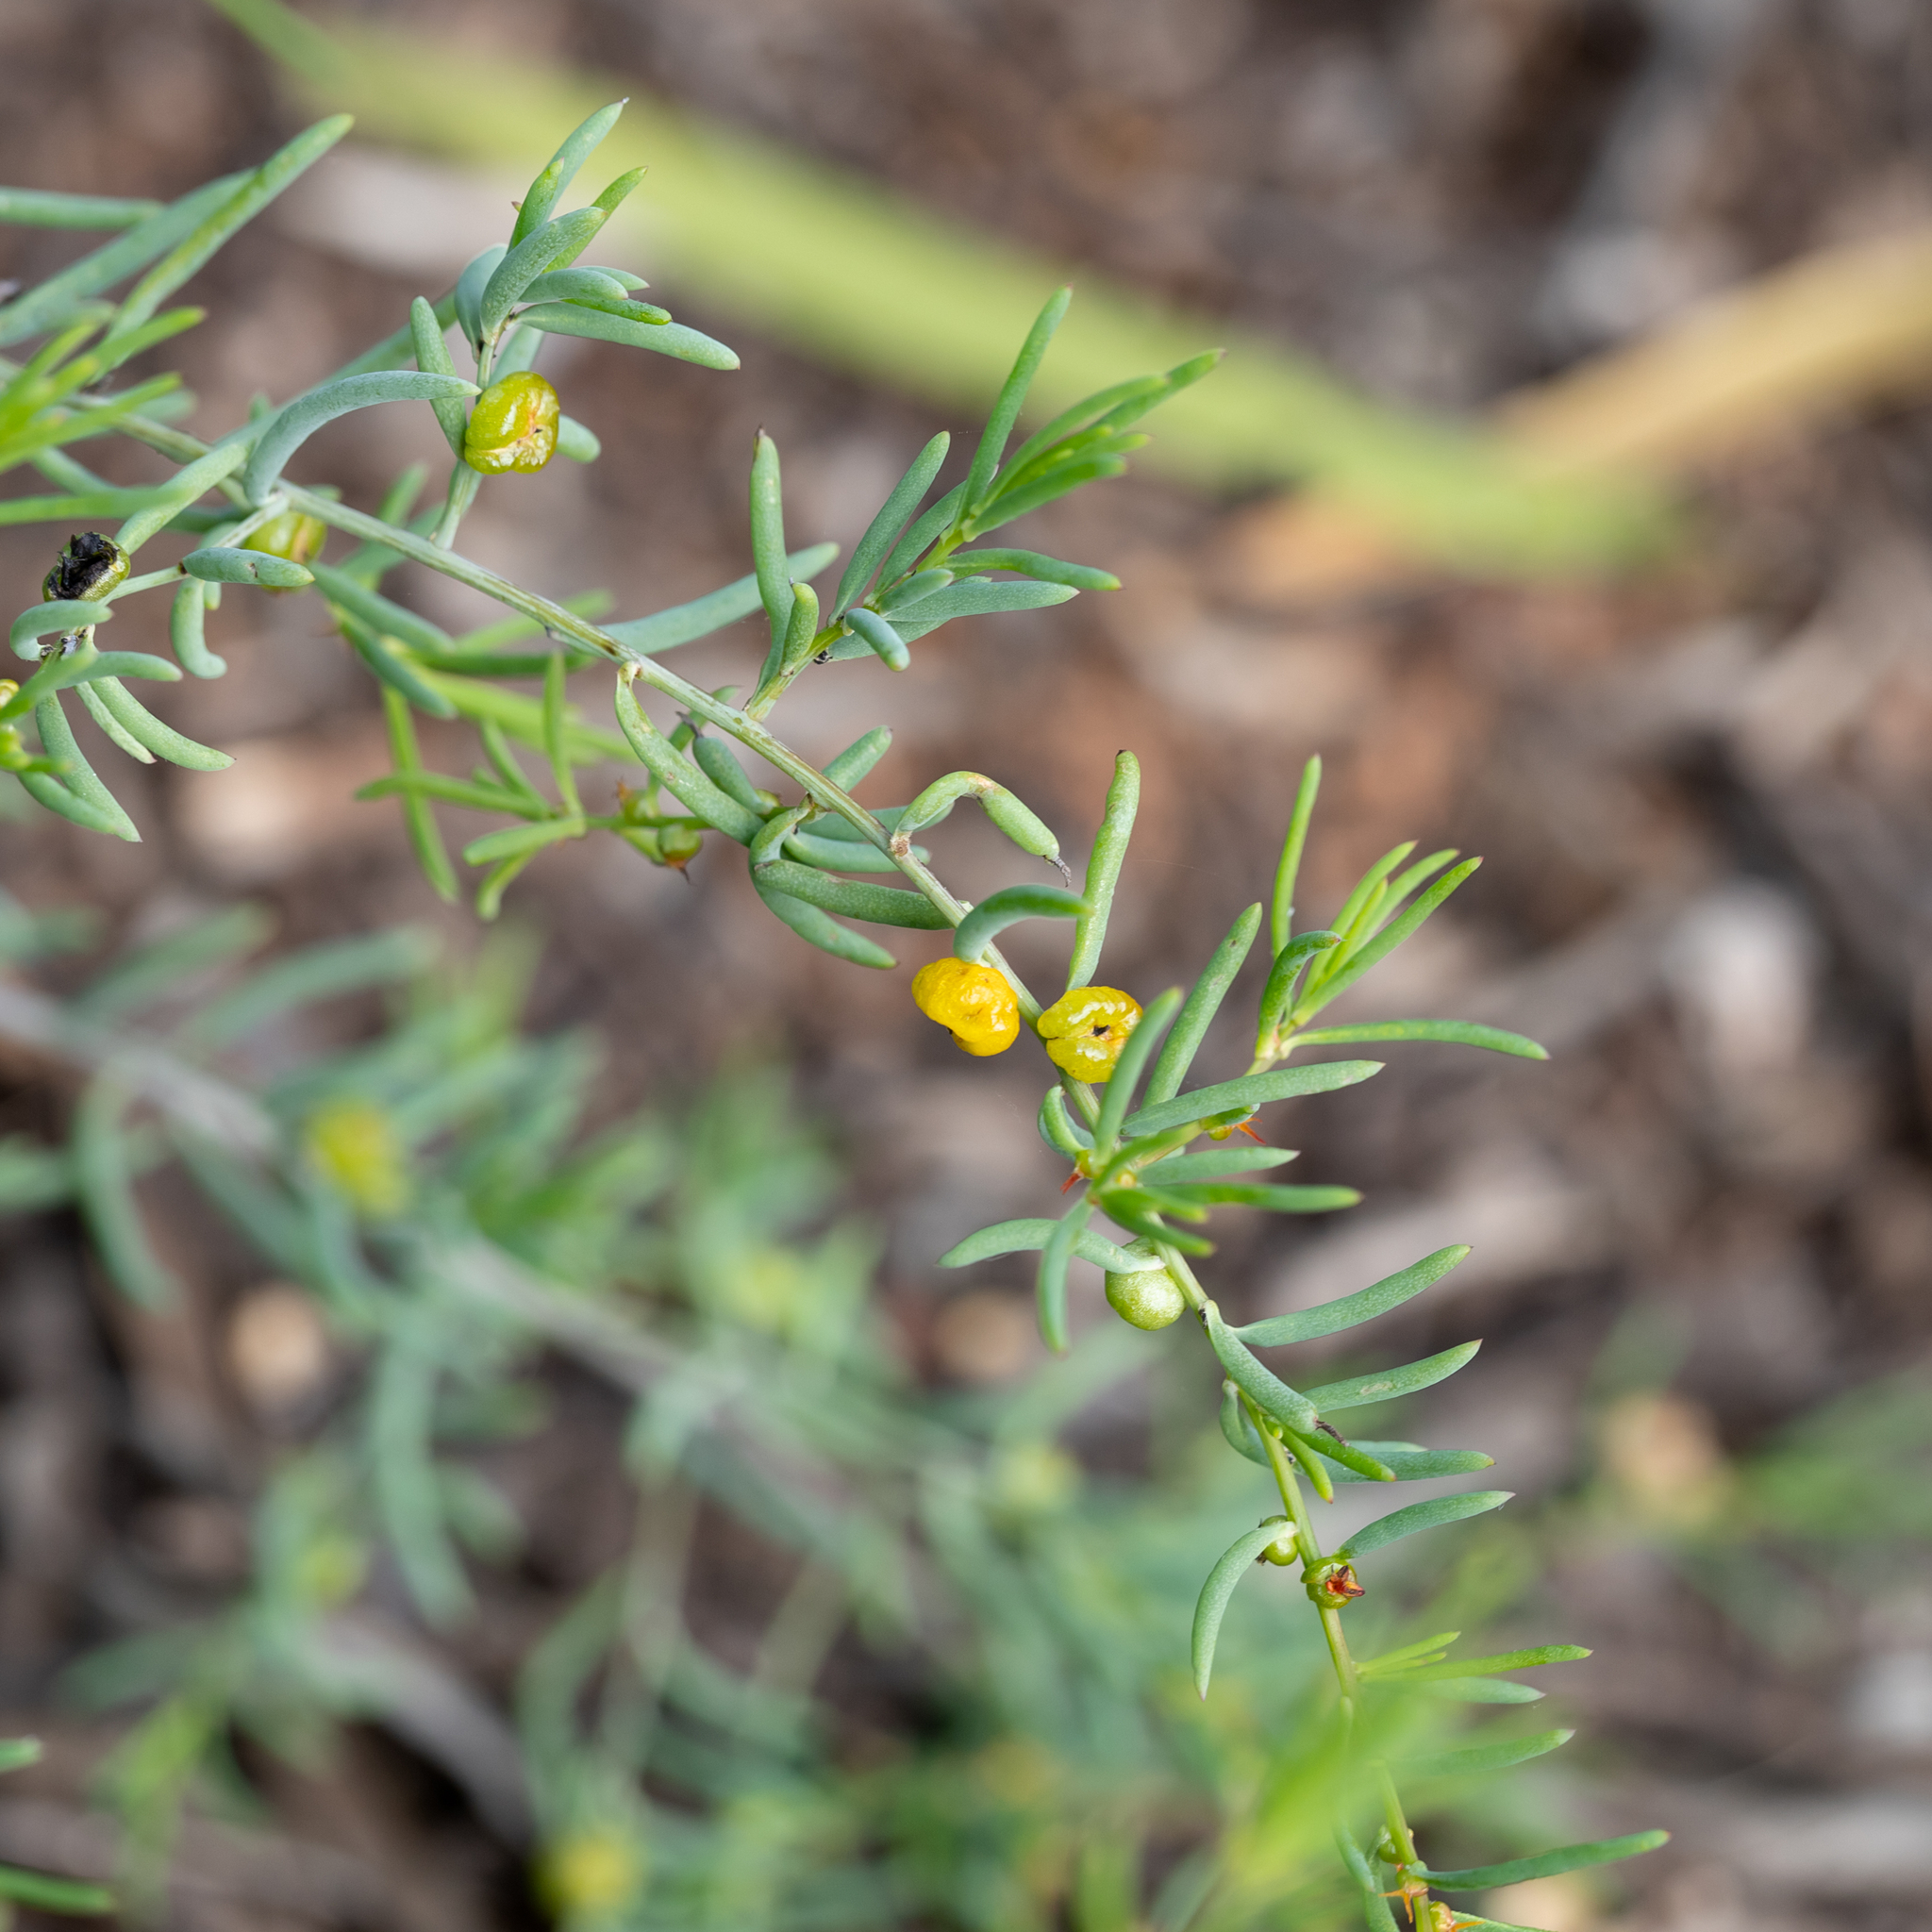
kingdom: Plantae
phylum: Tracheophyta
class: Magnoliopsida
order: Caryophyllales
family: Amaranthaceae
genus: Enchylaena
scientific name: Enchylaena tomentosa
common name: Ruby saltbush
